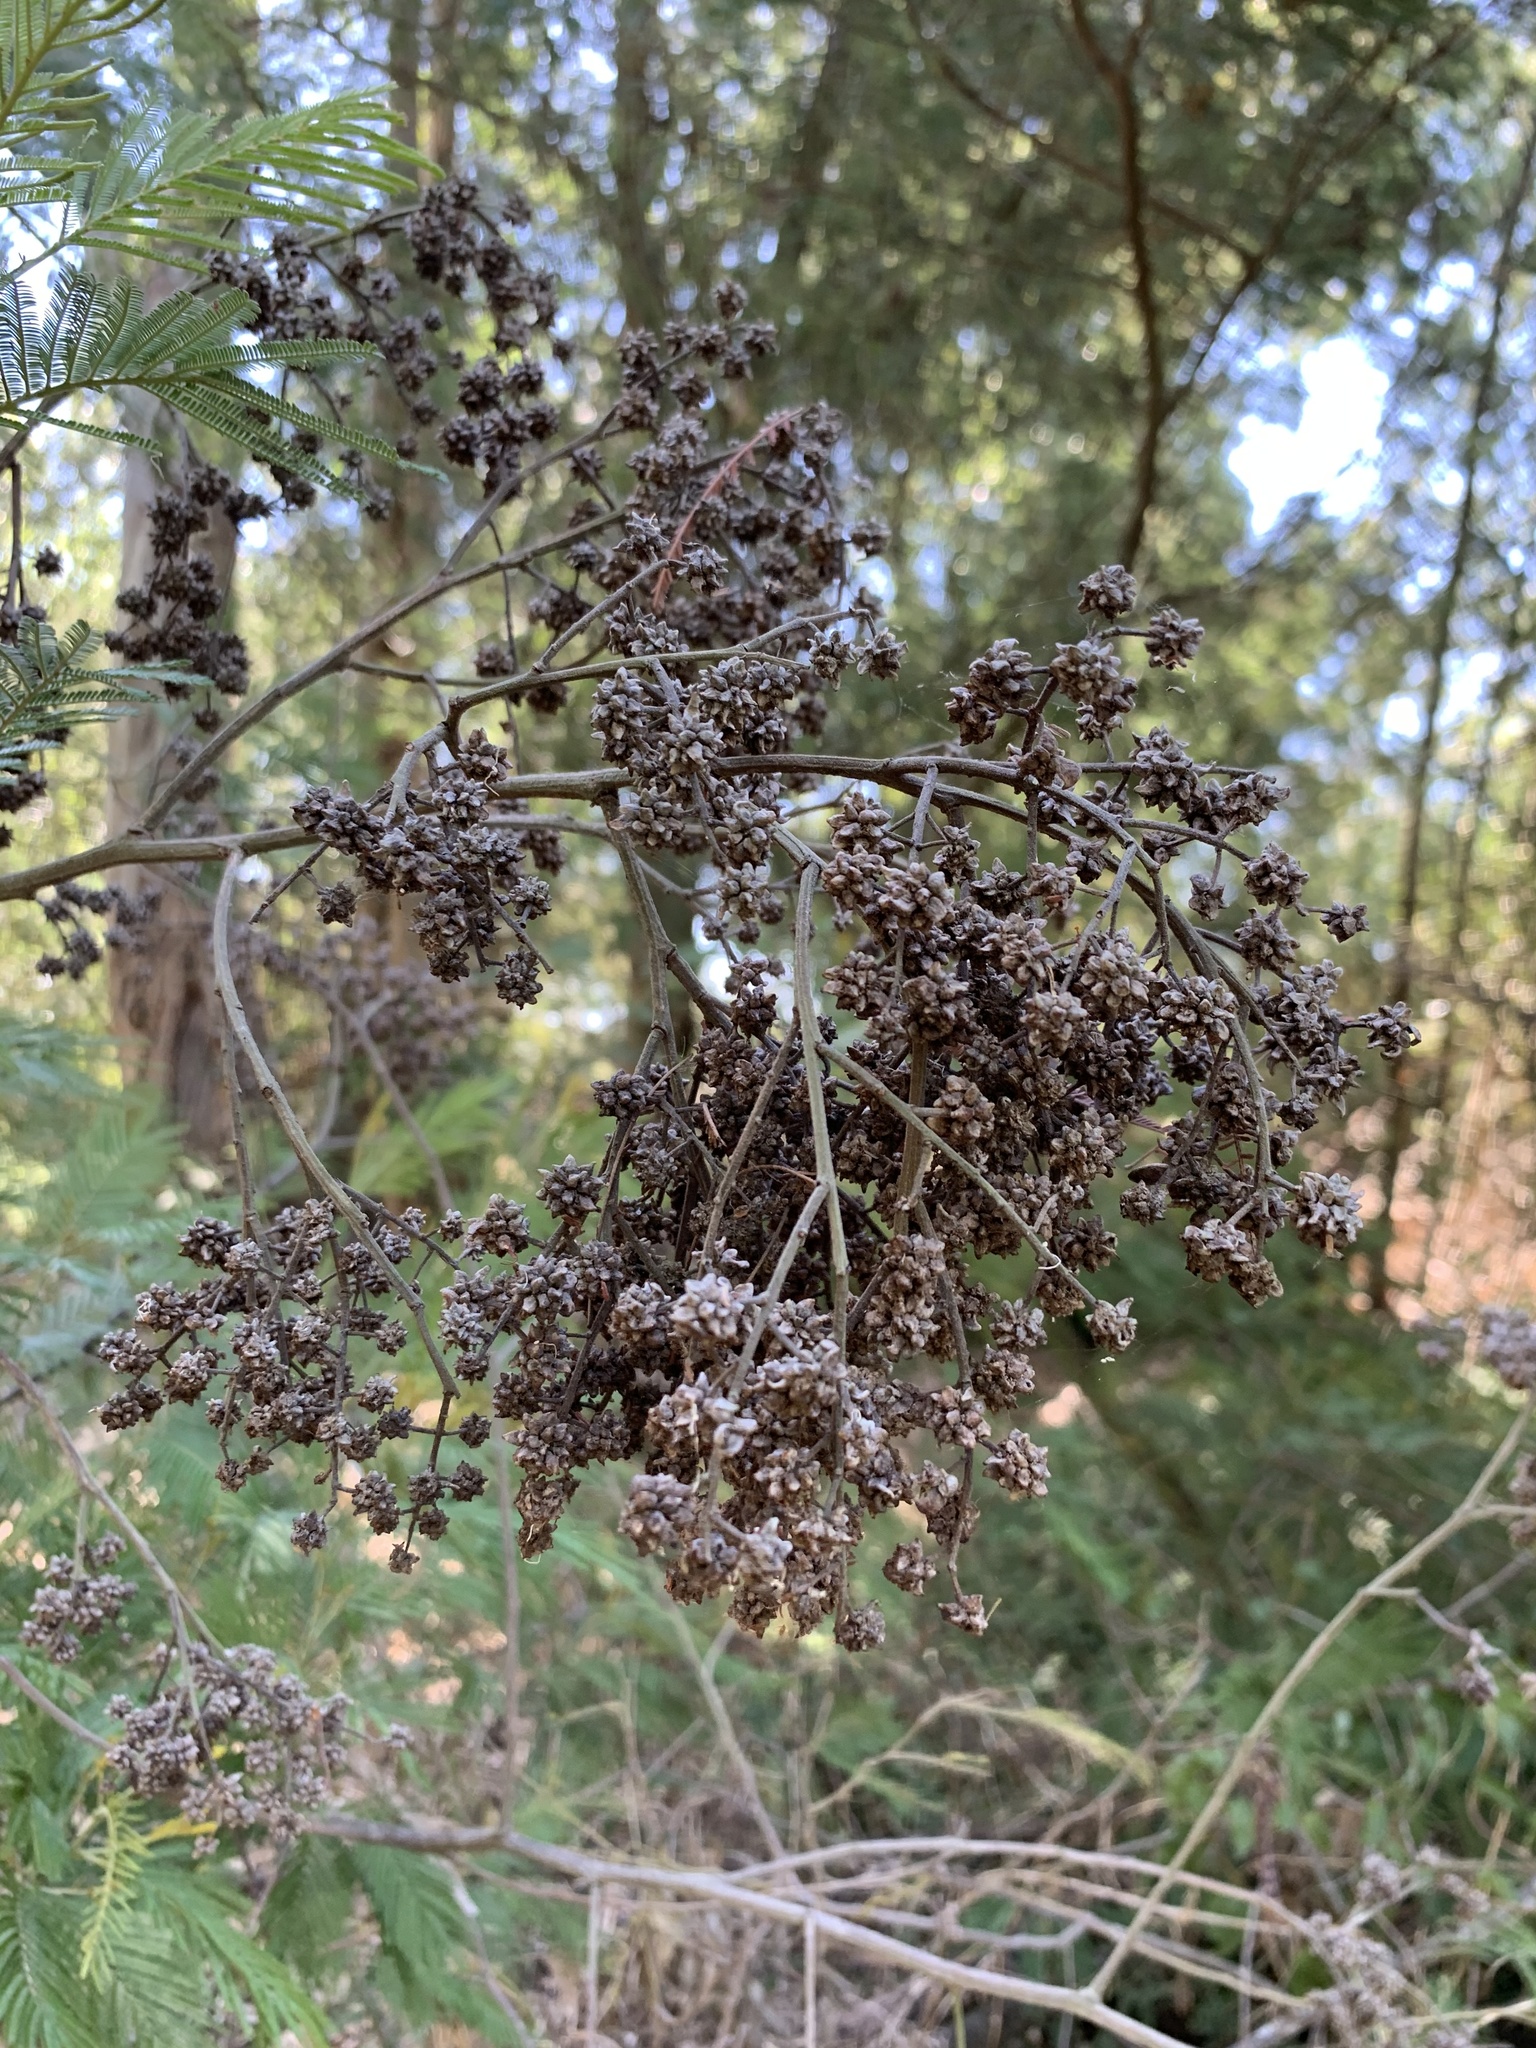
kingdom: Animalia
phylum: Arthropoda
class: Insecta
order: Diptera
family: Cecidomyiidae
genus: Dasineura
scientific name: Dasineura rubiformis
